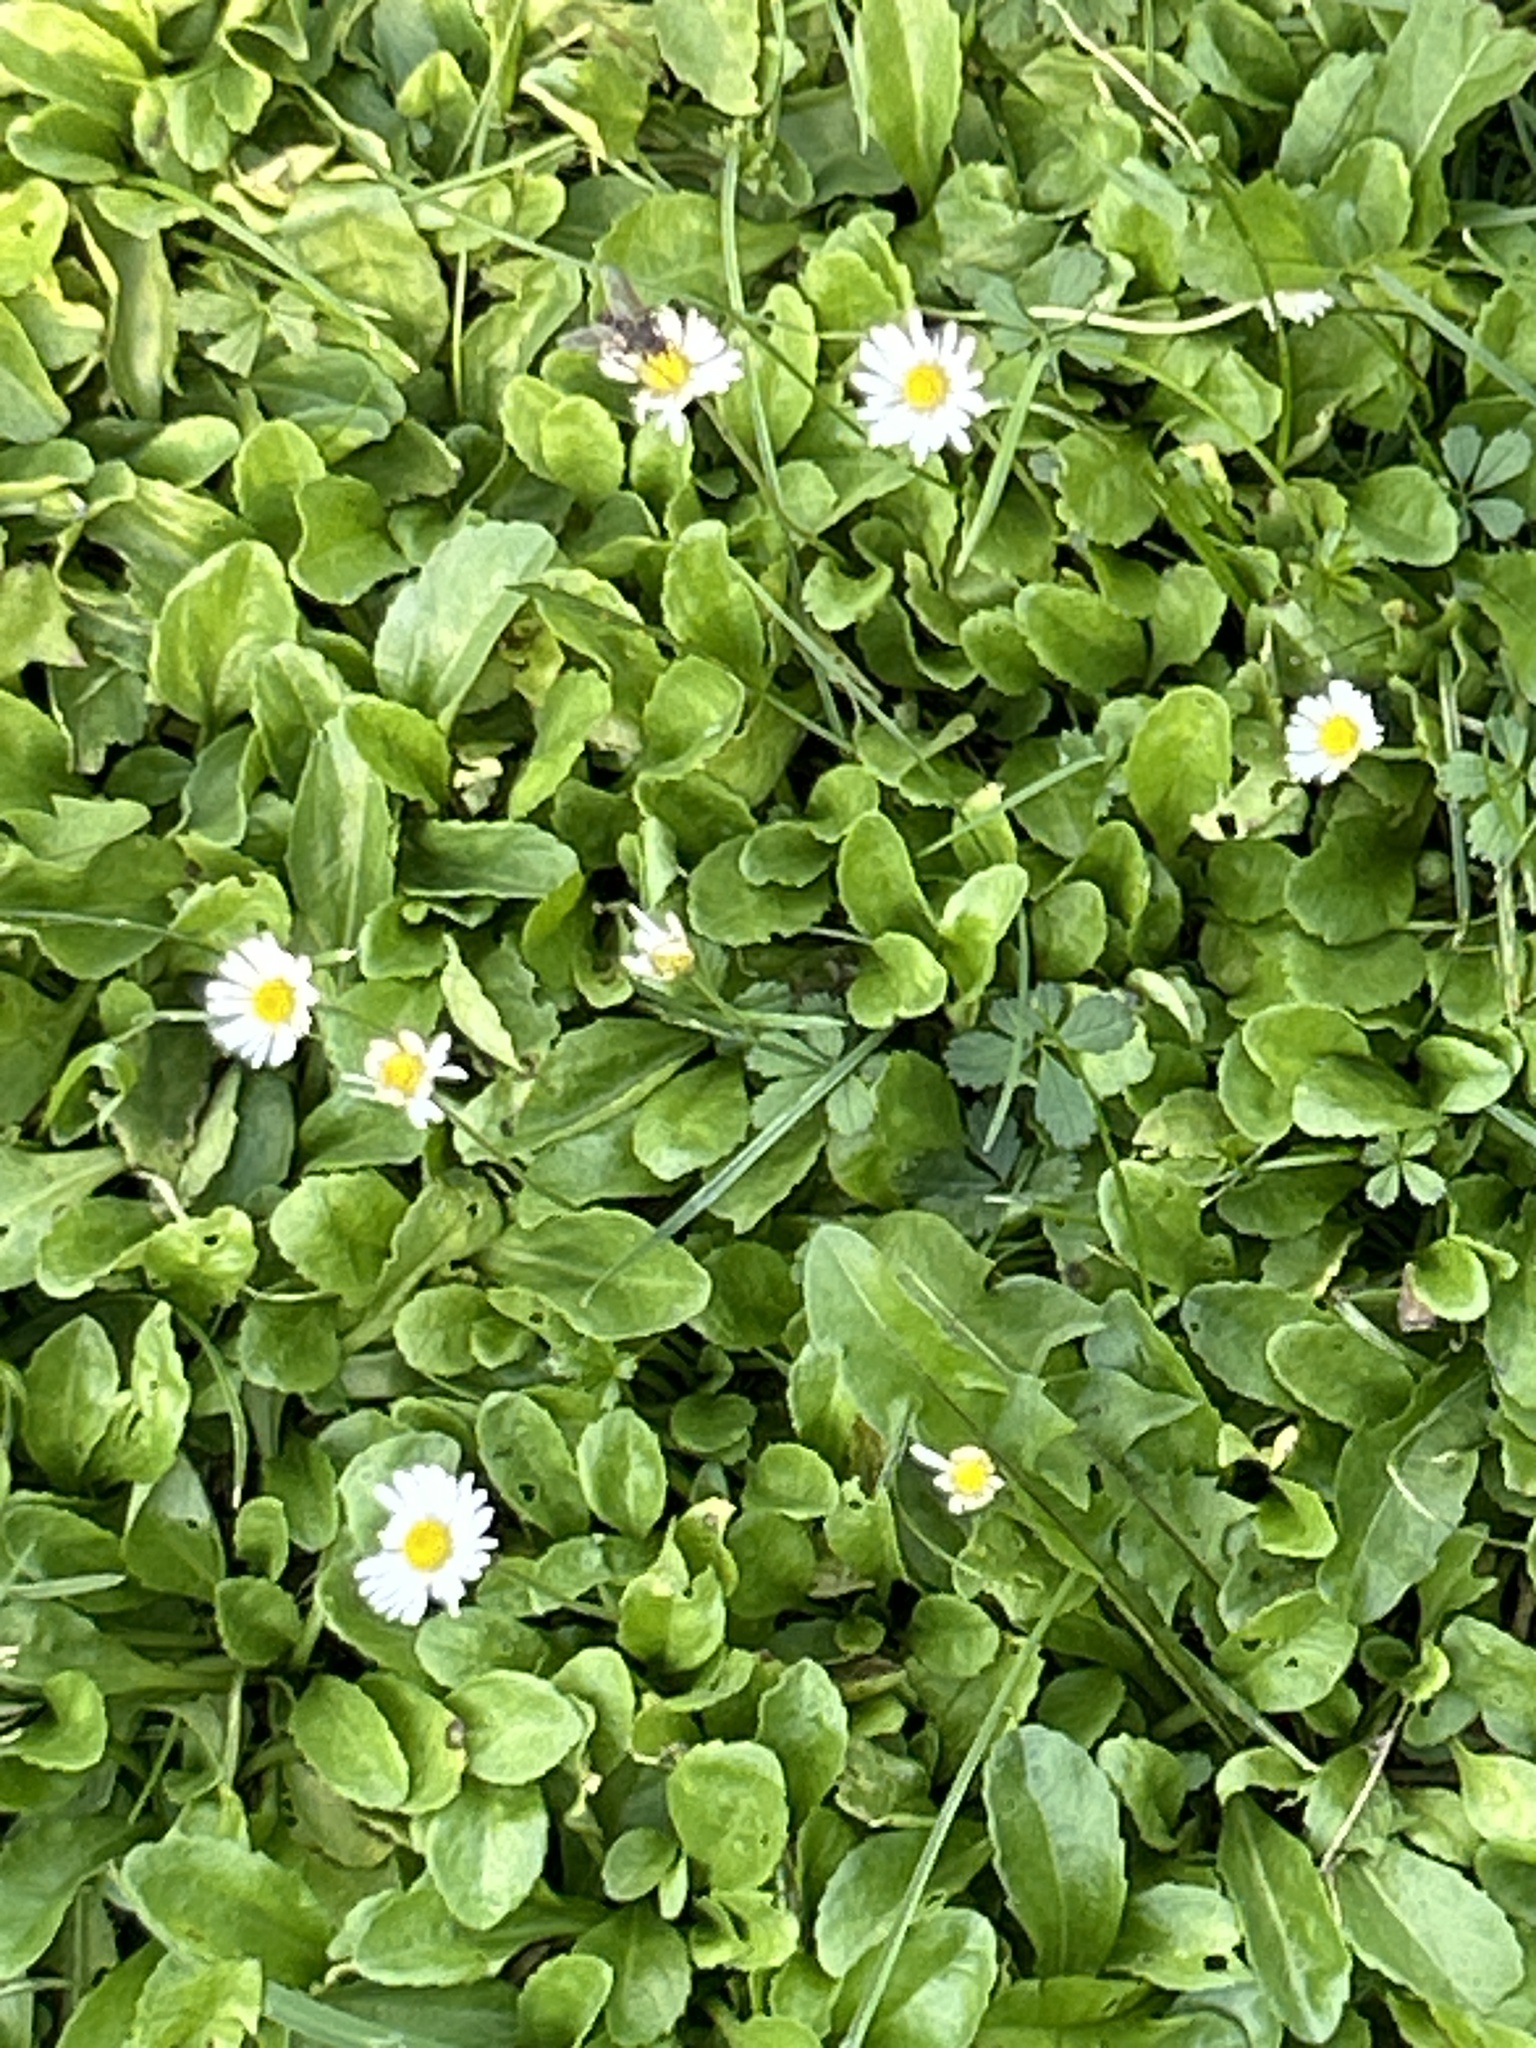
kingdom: Plantae
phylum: Tracheophyta
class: Magnoliopsida
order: Asterales
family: Asteraceae
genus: Bellis
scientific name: Bellis perennis
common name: Lawndaisy
